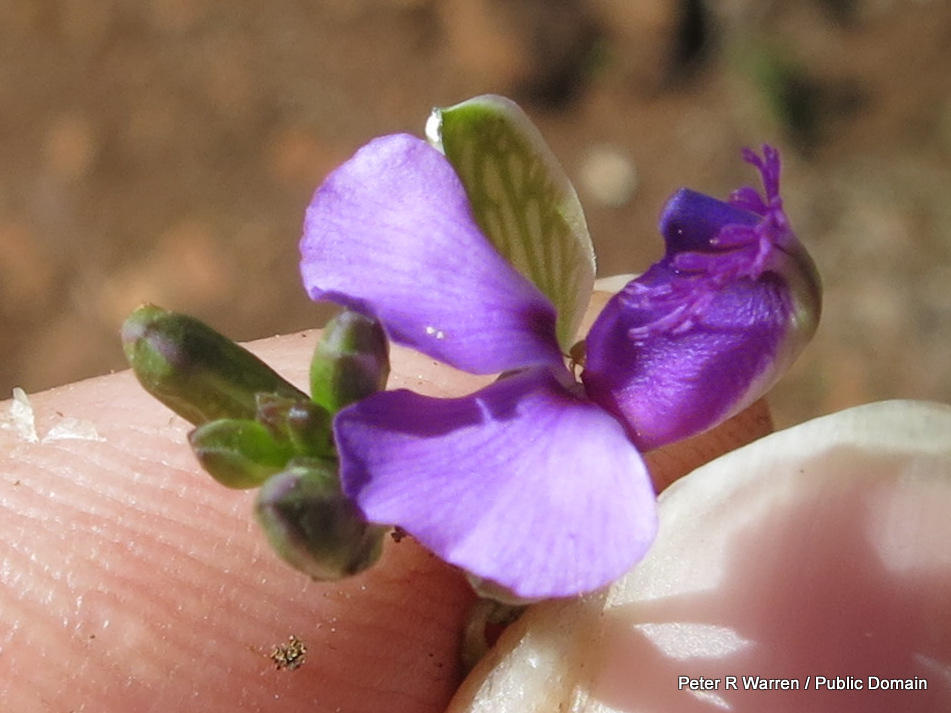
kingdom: Plantae
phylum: Tracheophyta
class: Magnoliopsida
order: Fabales
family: Polygalaceae
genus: Polygala
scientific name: Polygala uncinata
